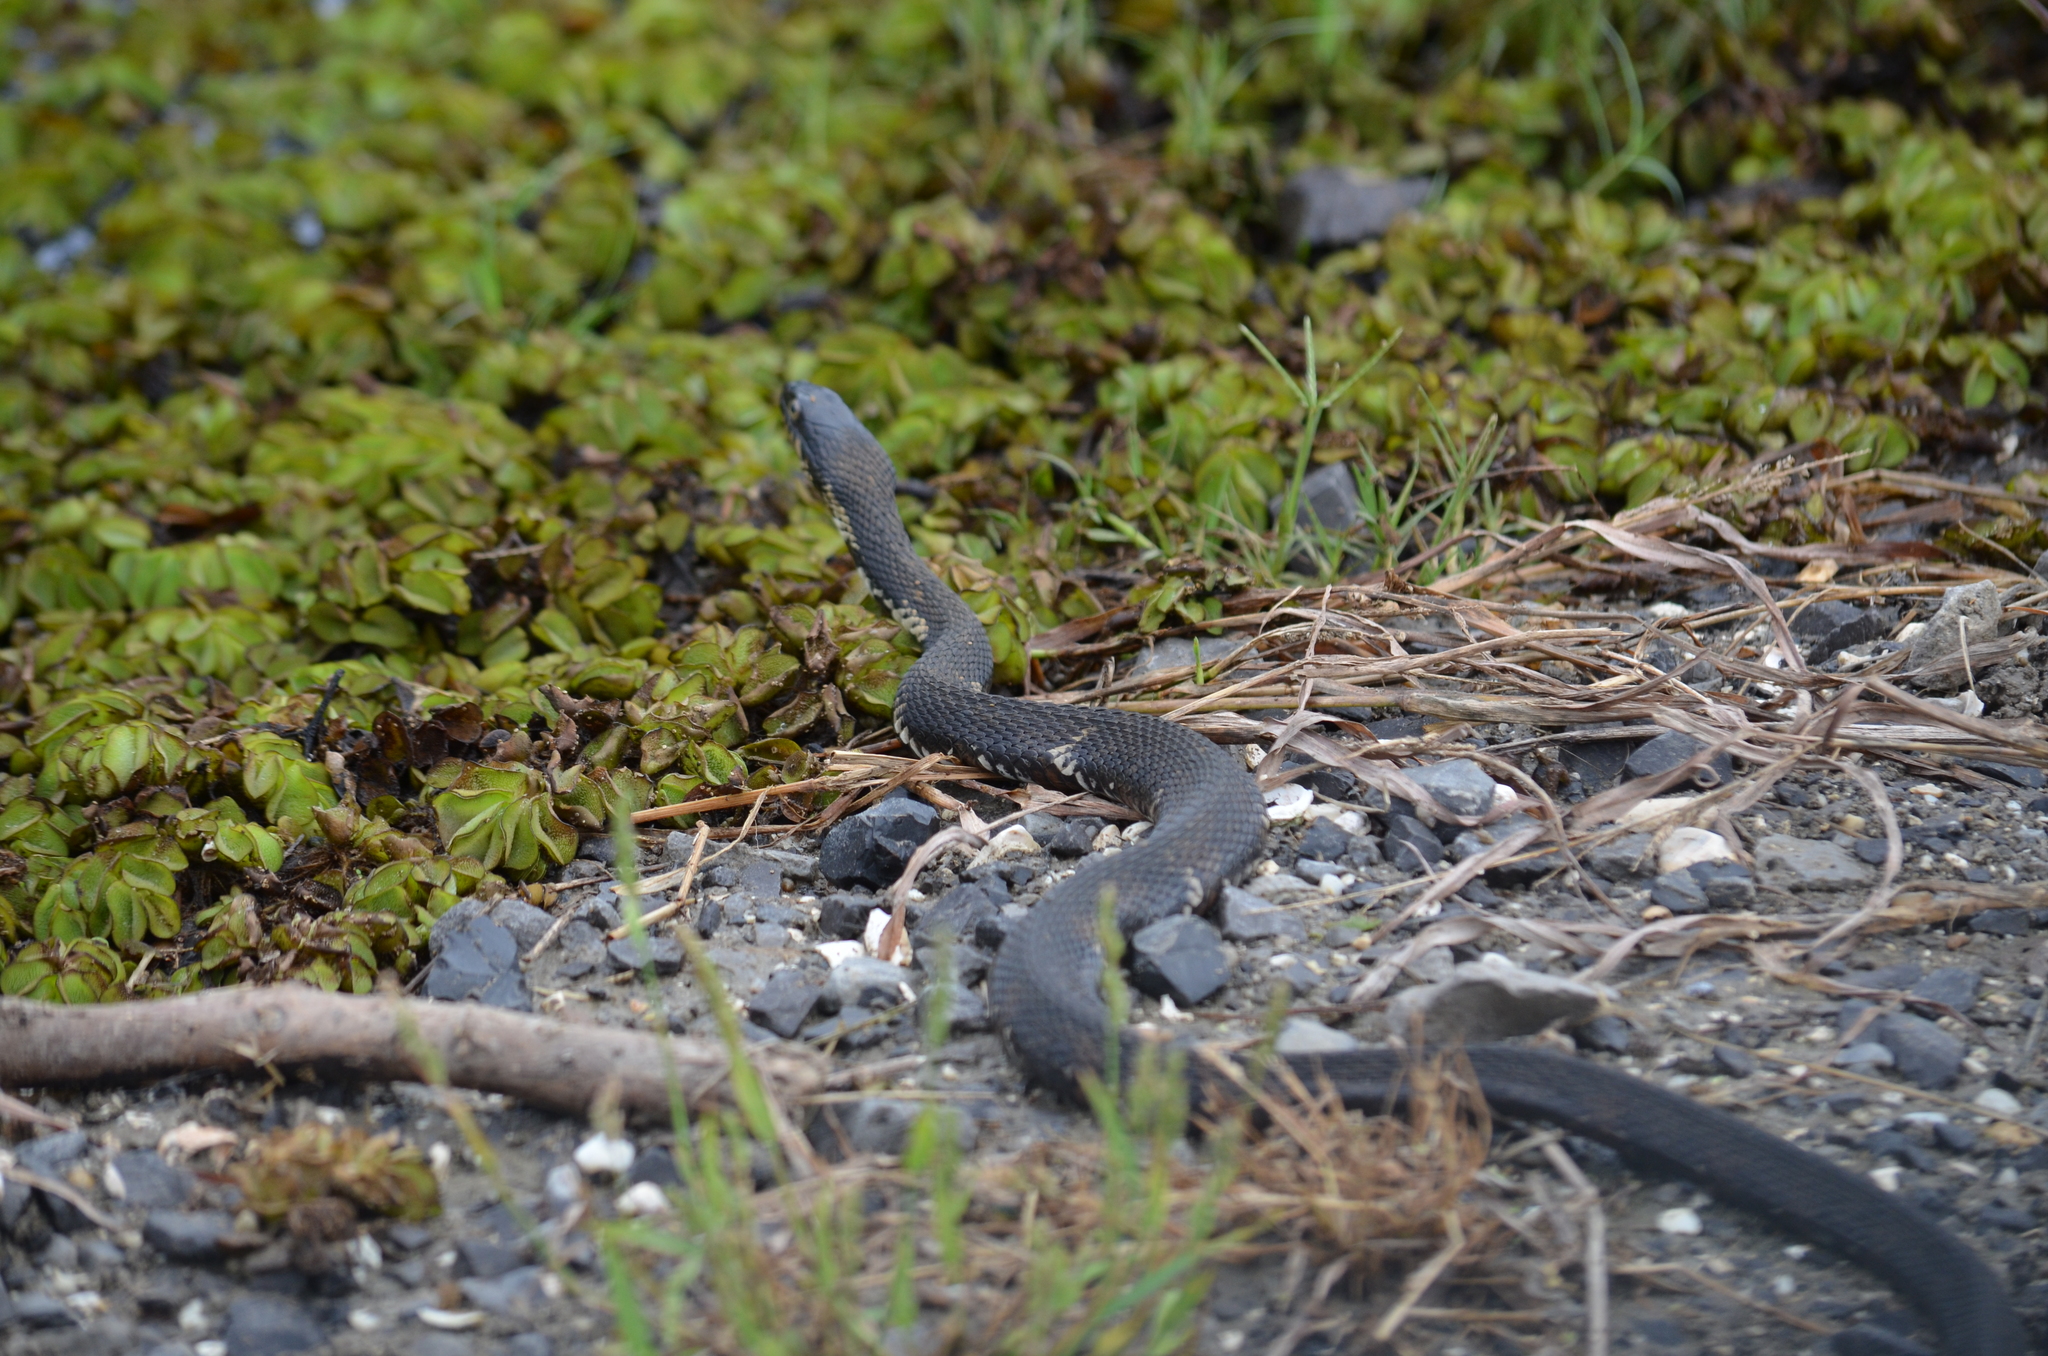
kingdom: Animalia
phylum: Chordata
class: Squamata
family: Colubridae
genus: Nerodia
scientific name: Nerodia fasciata
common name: Southern water snake
